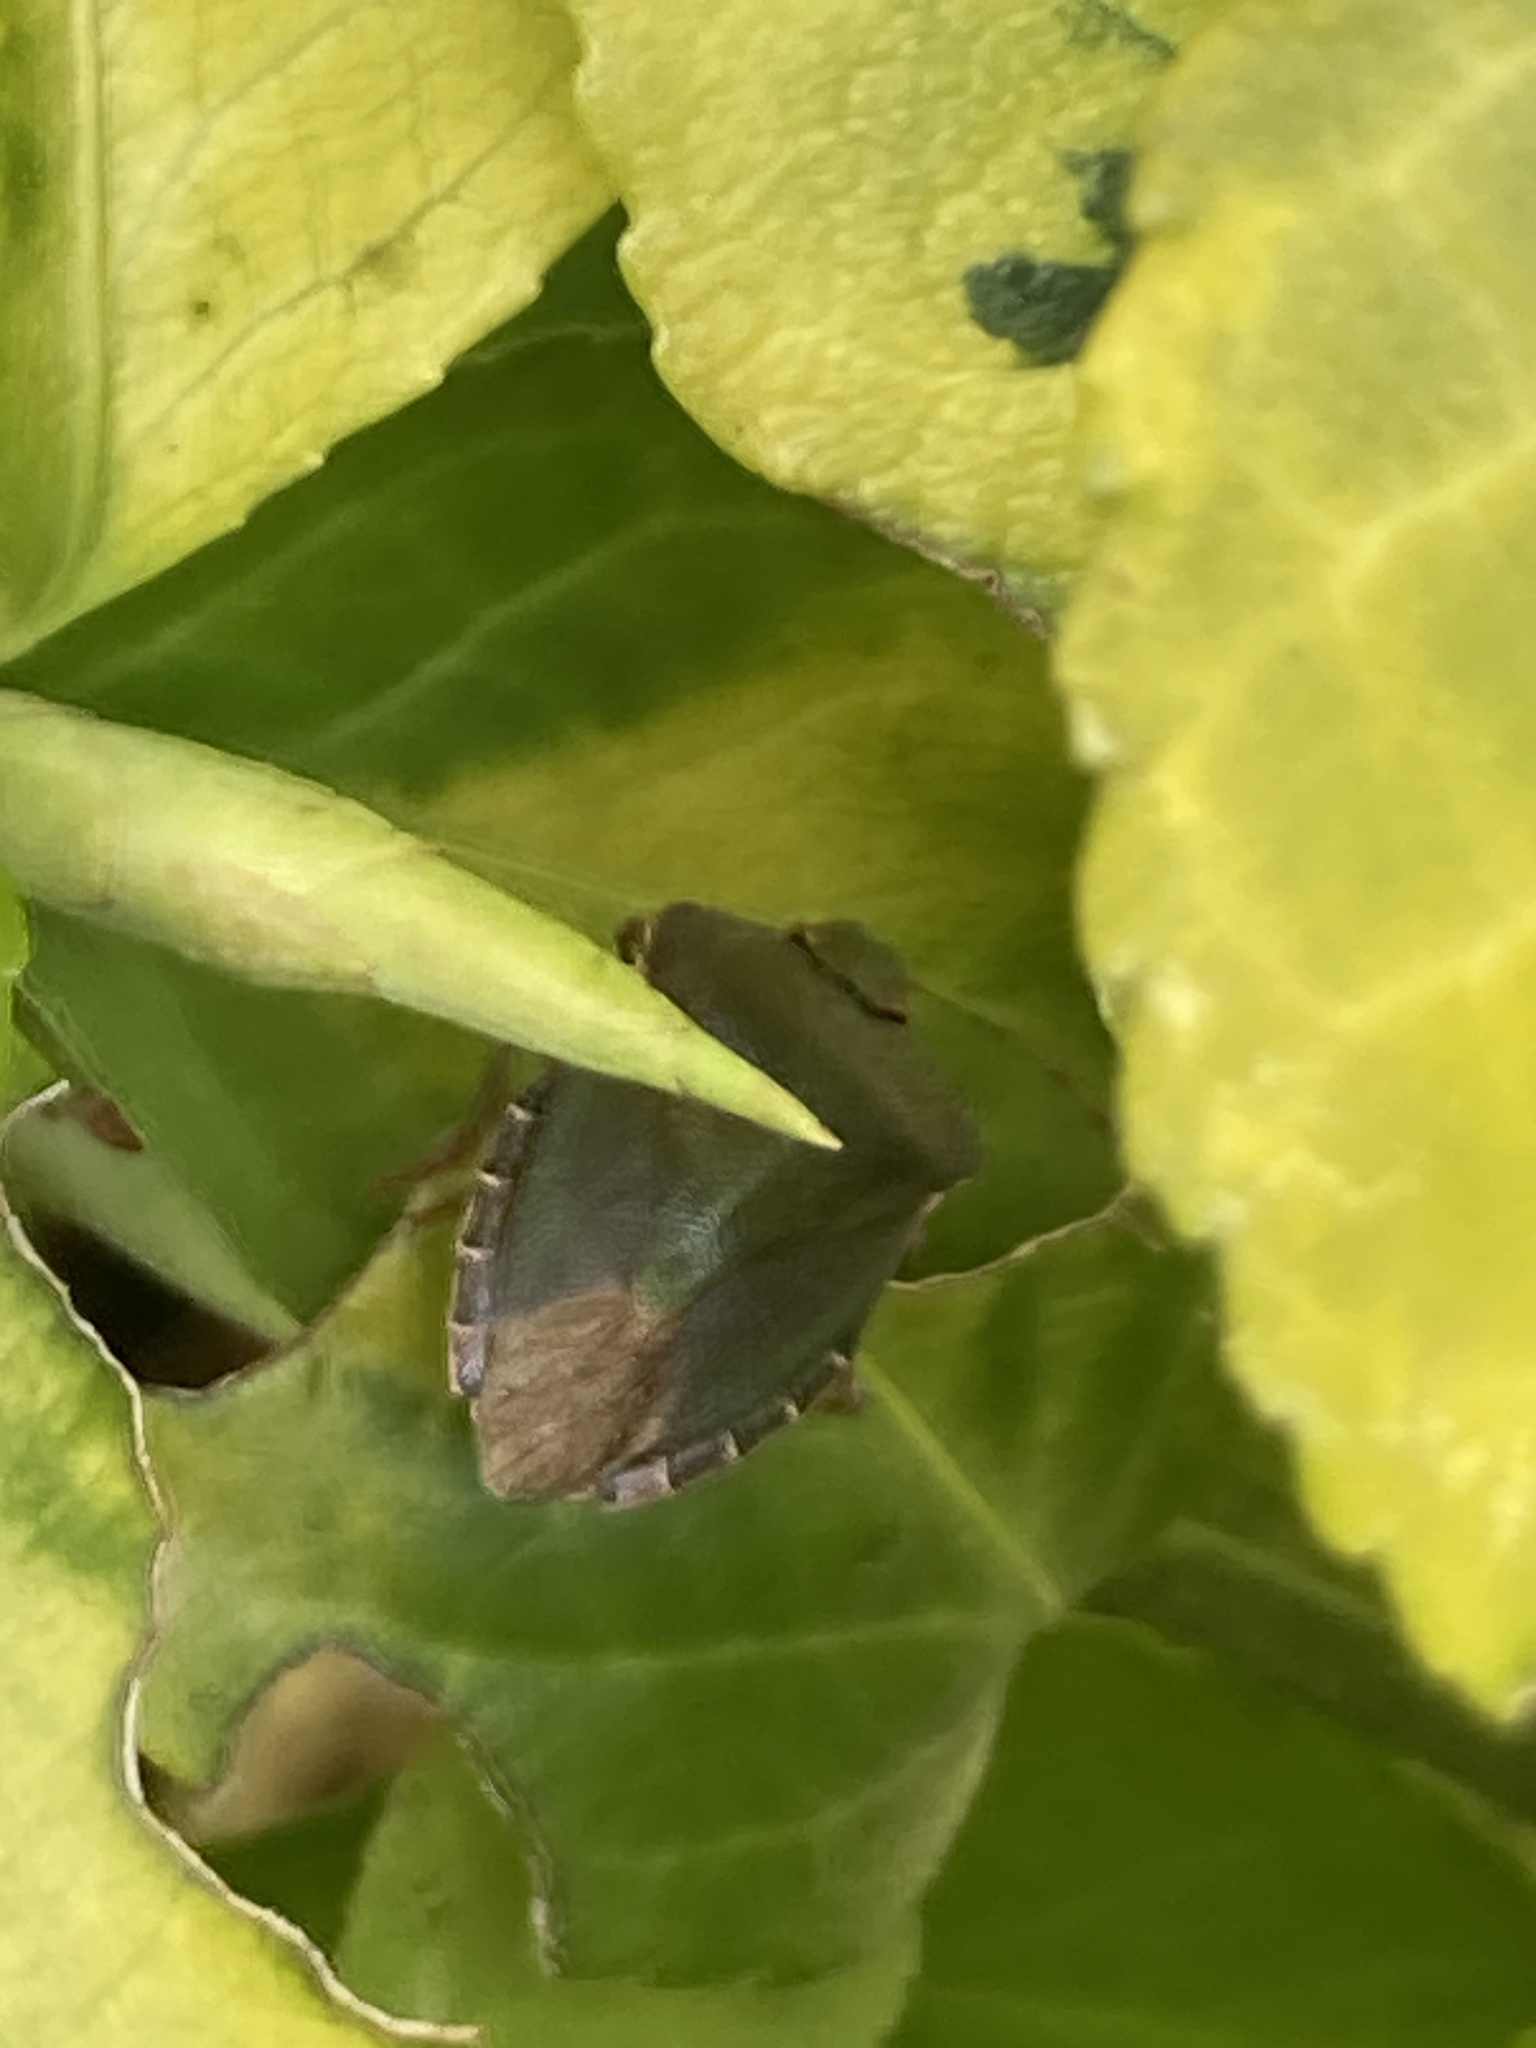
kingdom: Animalia
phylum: Arthropoda
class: Insecta
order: Hemiptera
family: Pentatomidae
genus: Palomena
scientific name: Palomena prasina
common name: Green shieldbug
